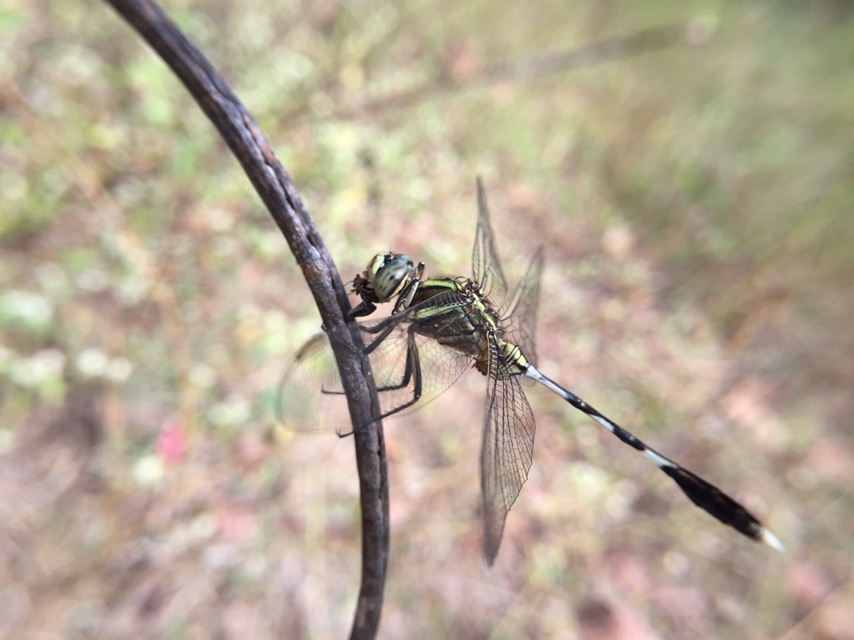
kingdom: Animalia
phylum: Arthropoda
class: Insecta
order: Odonata
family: Libellulidae
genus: Orthetrum
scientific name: Orthetrum sabina
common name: Slender skimmer
